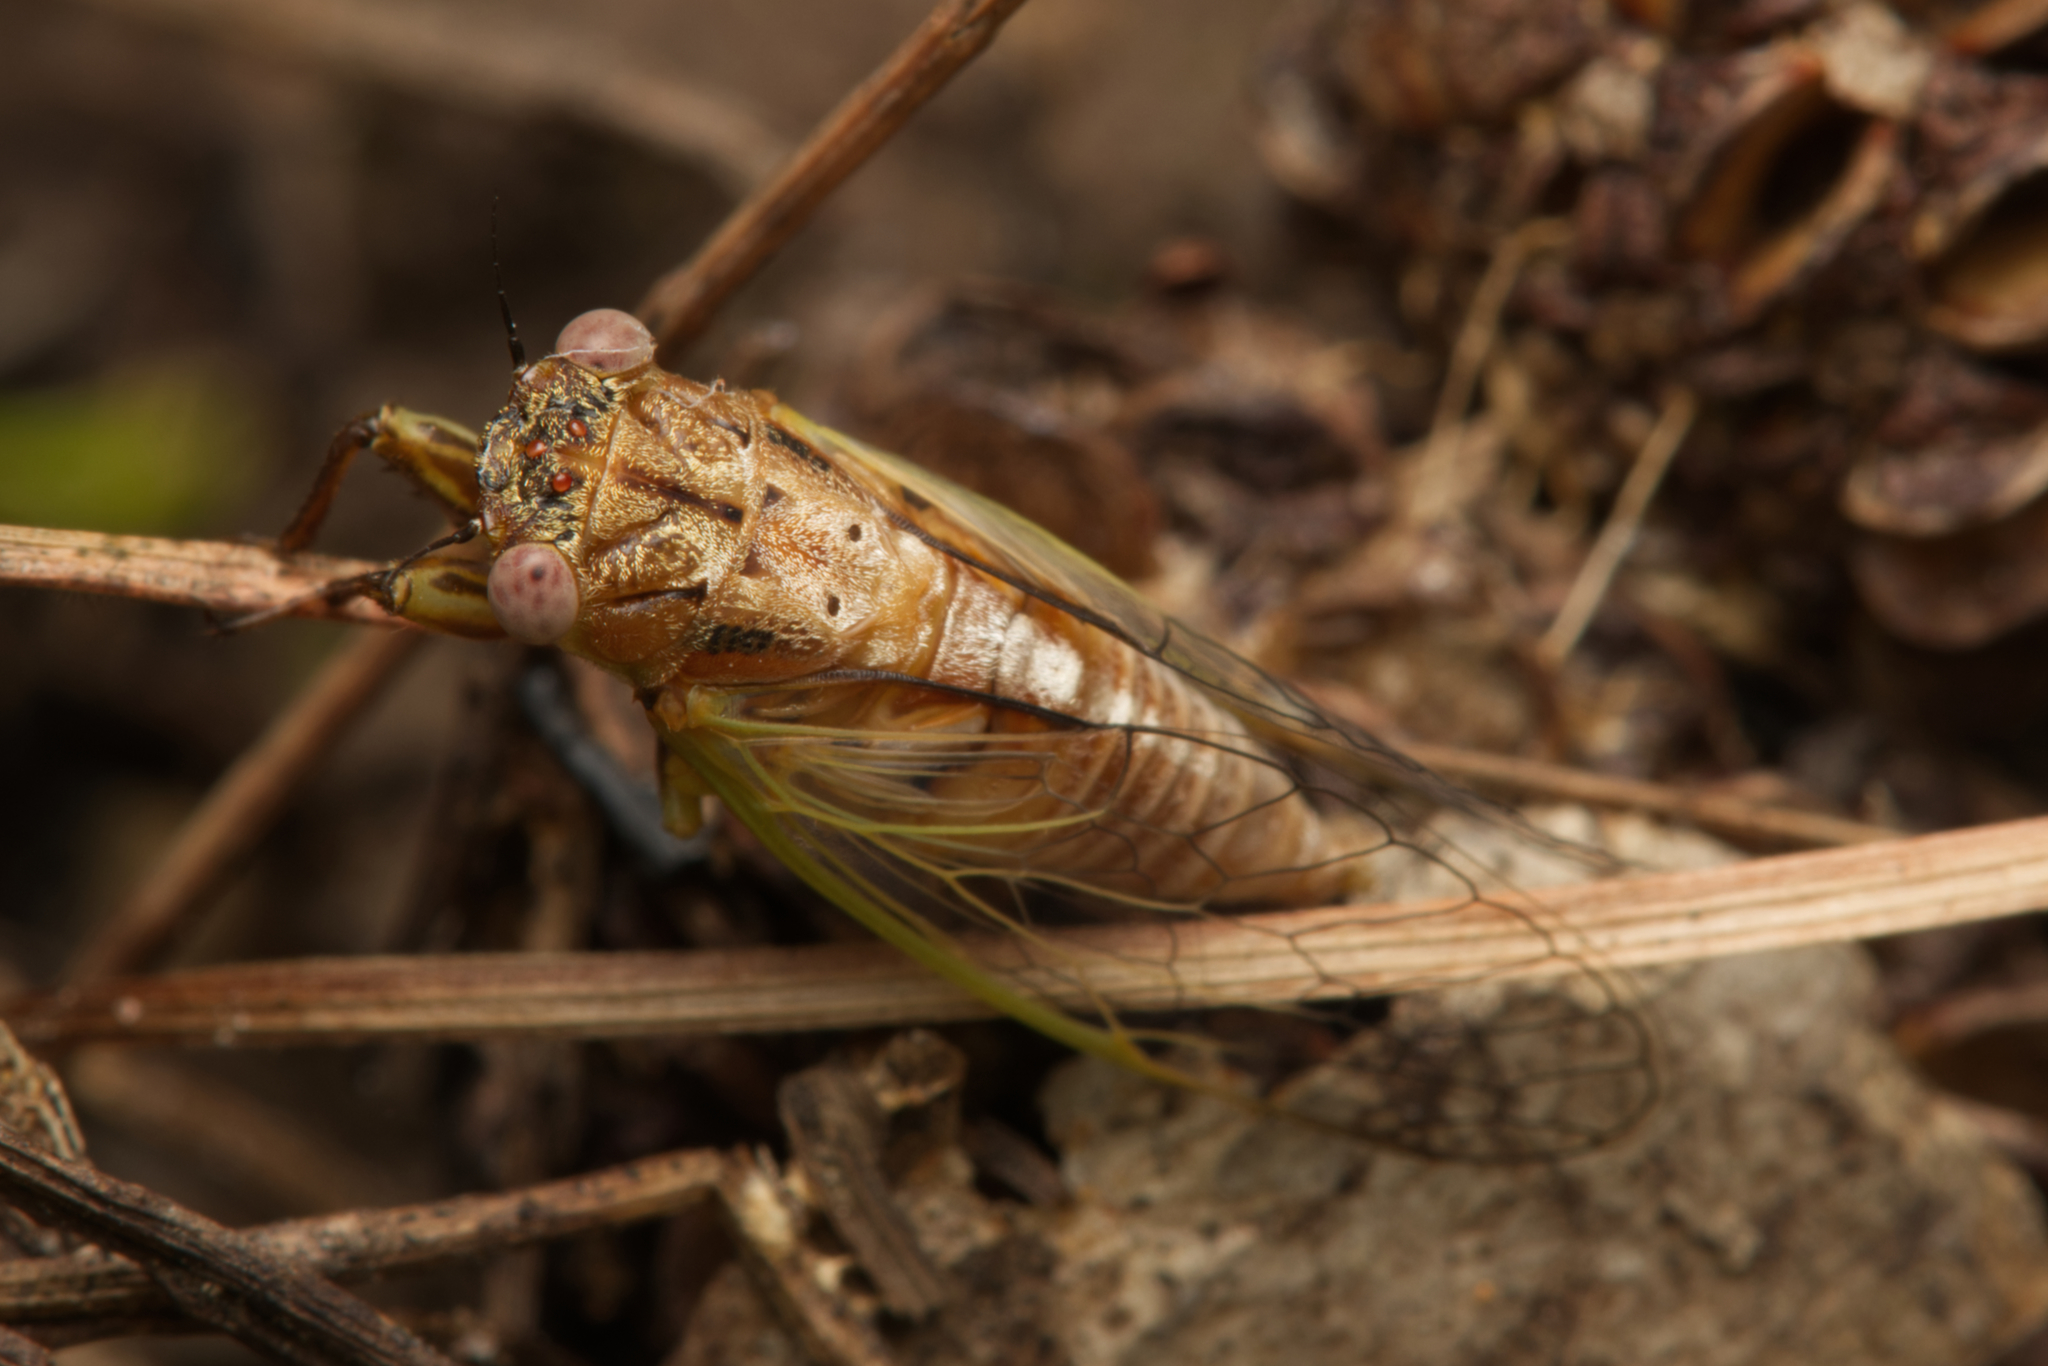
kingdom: Animalia
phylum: Arthropoda
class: Insecta
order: Hemiptera
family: Cicadidae
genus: Urabunana
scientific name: Urabunana sericeivitta
